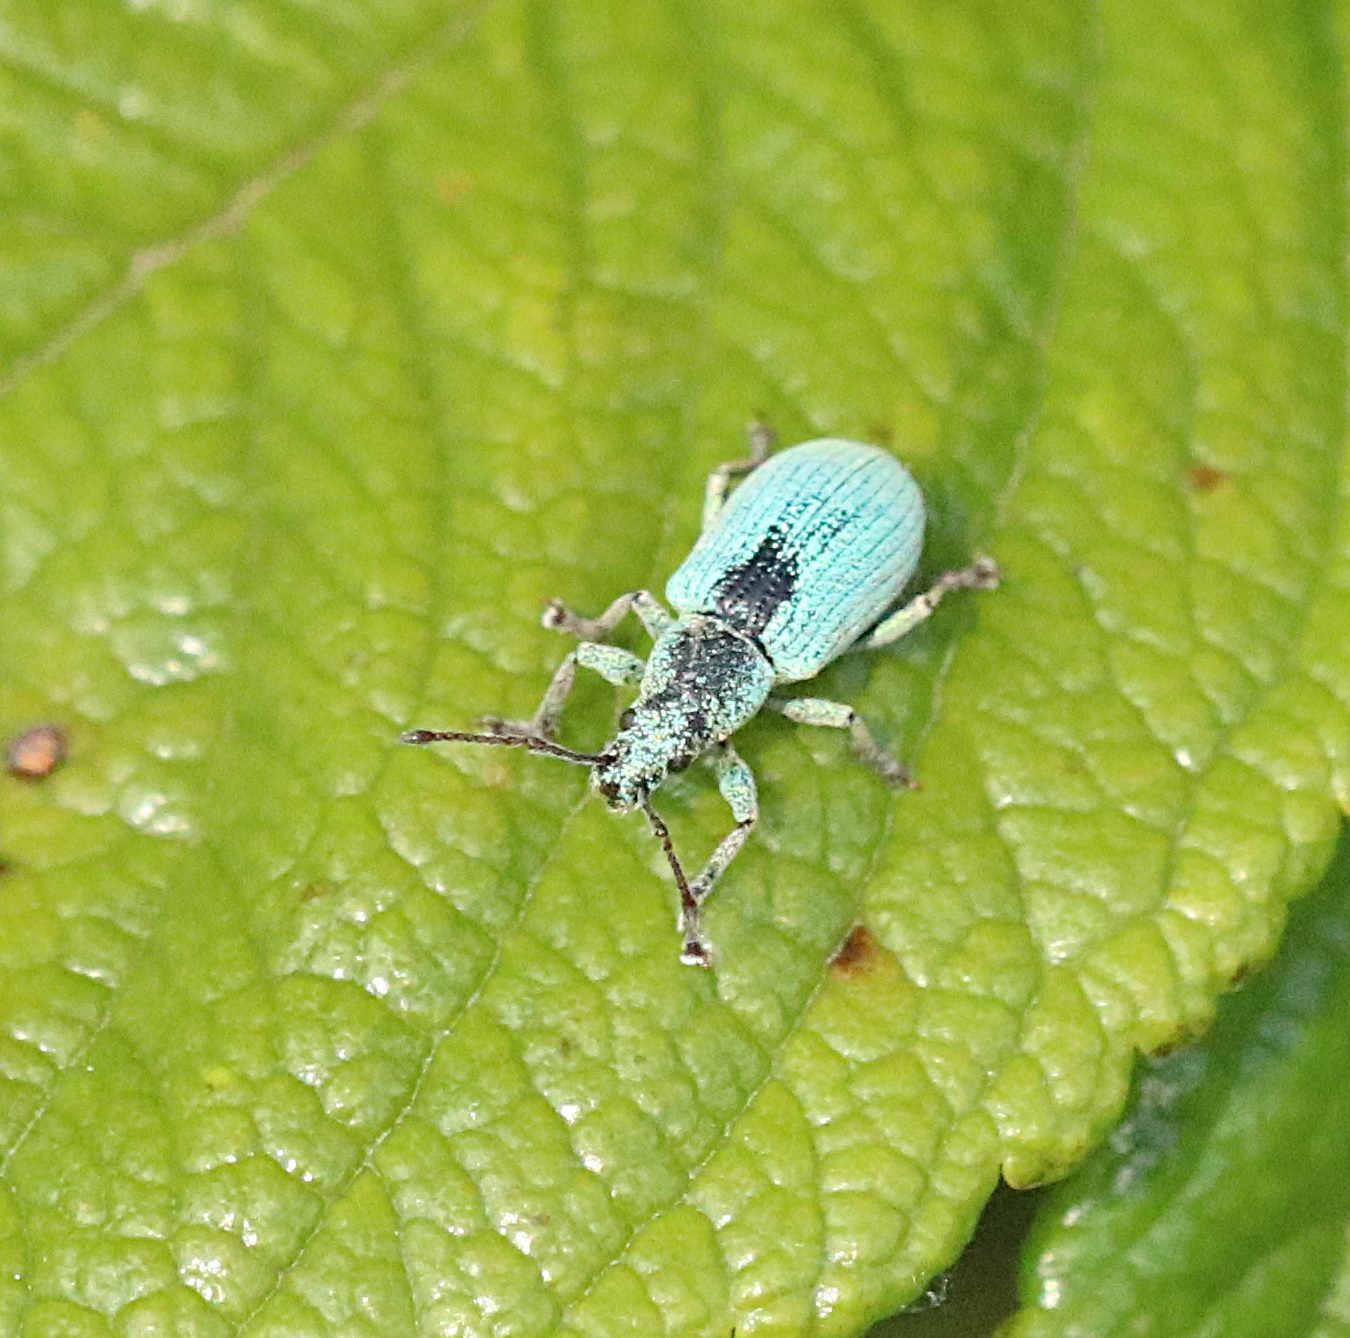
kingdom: Animalia
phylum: Arthropoda
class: Insecta
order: Coleoptera
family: Curculionidae
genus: Phyllobius
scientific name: Phyllobius virideaeris
